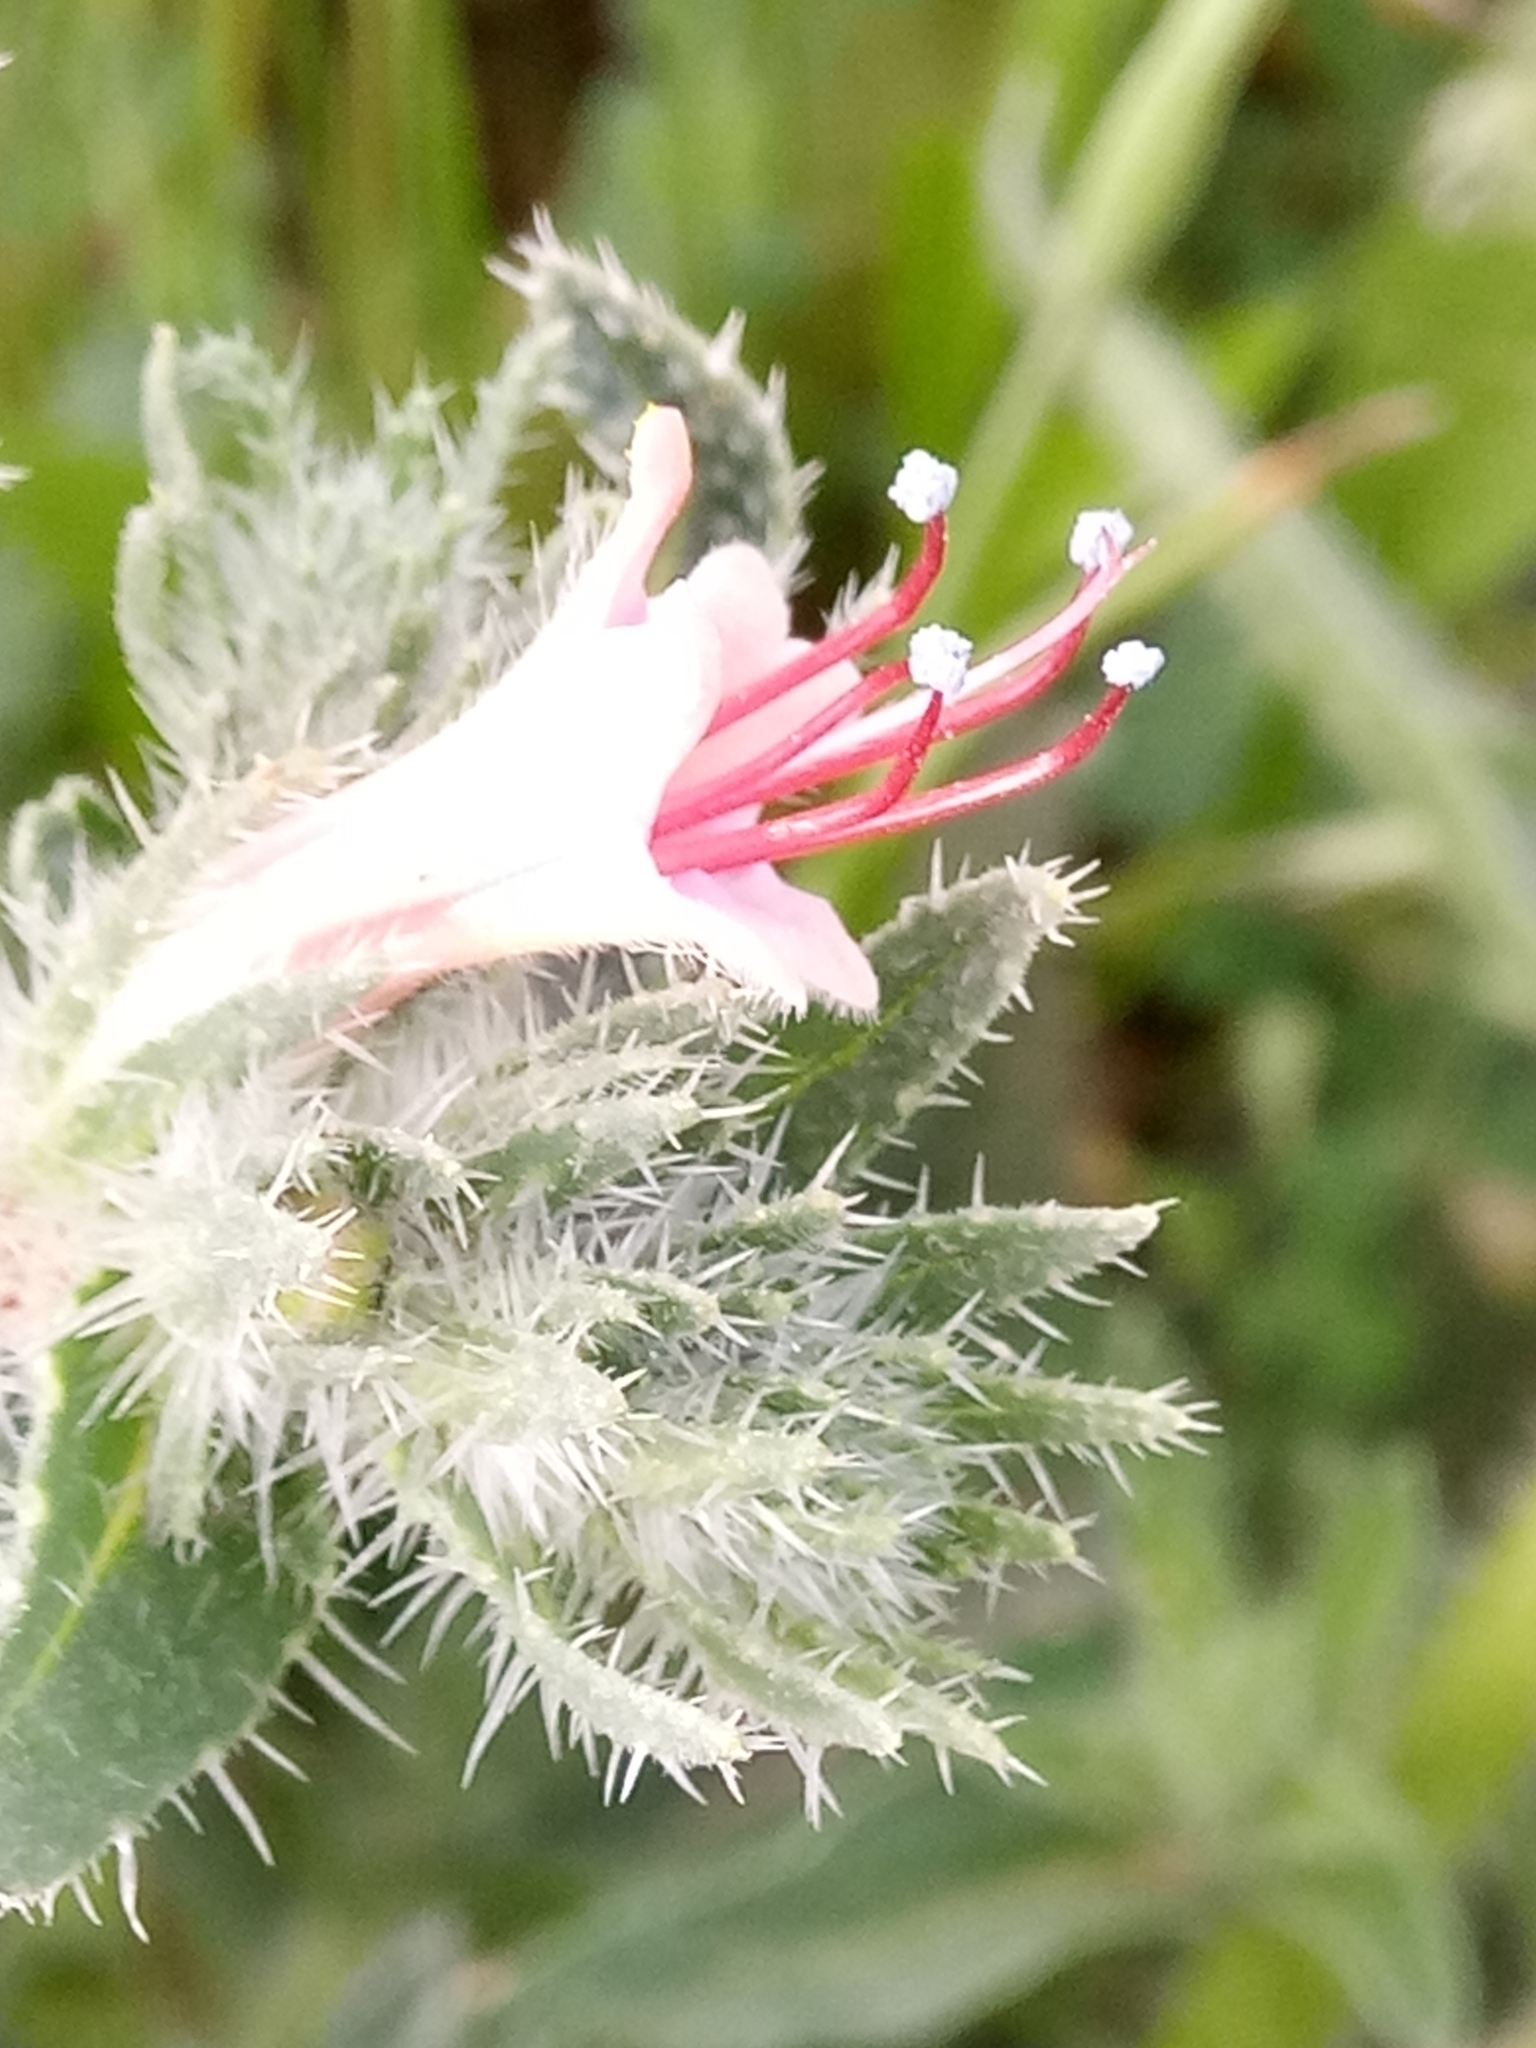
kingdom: Plantae
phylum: Tracheophyta
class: Magnoliopsida
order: Boraginales
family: Boraginaceae
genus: Echium
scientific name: Echium asperrimum
